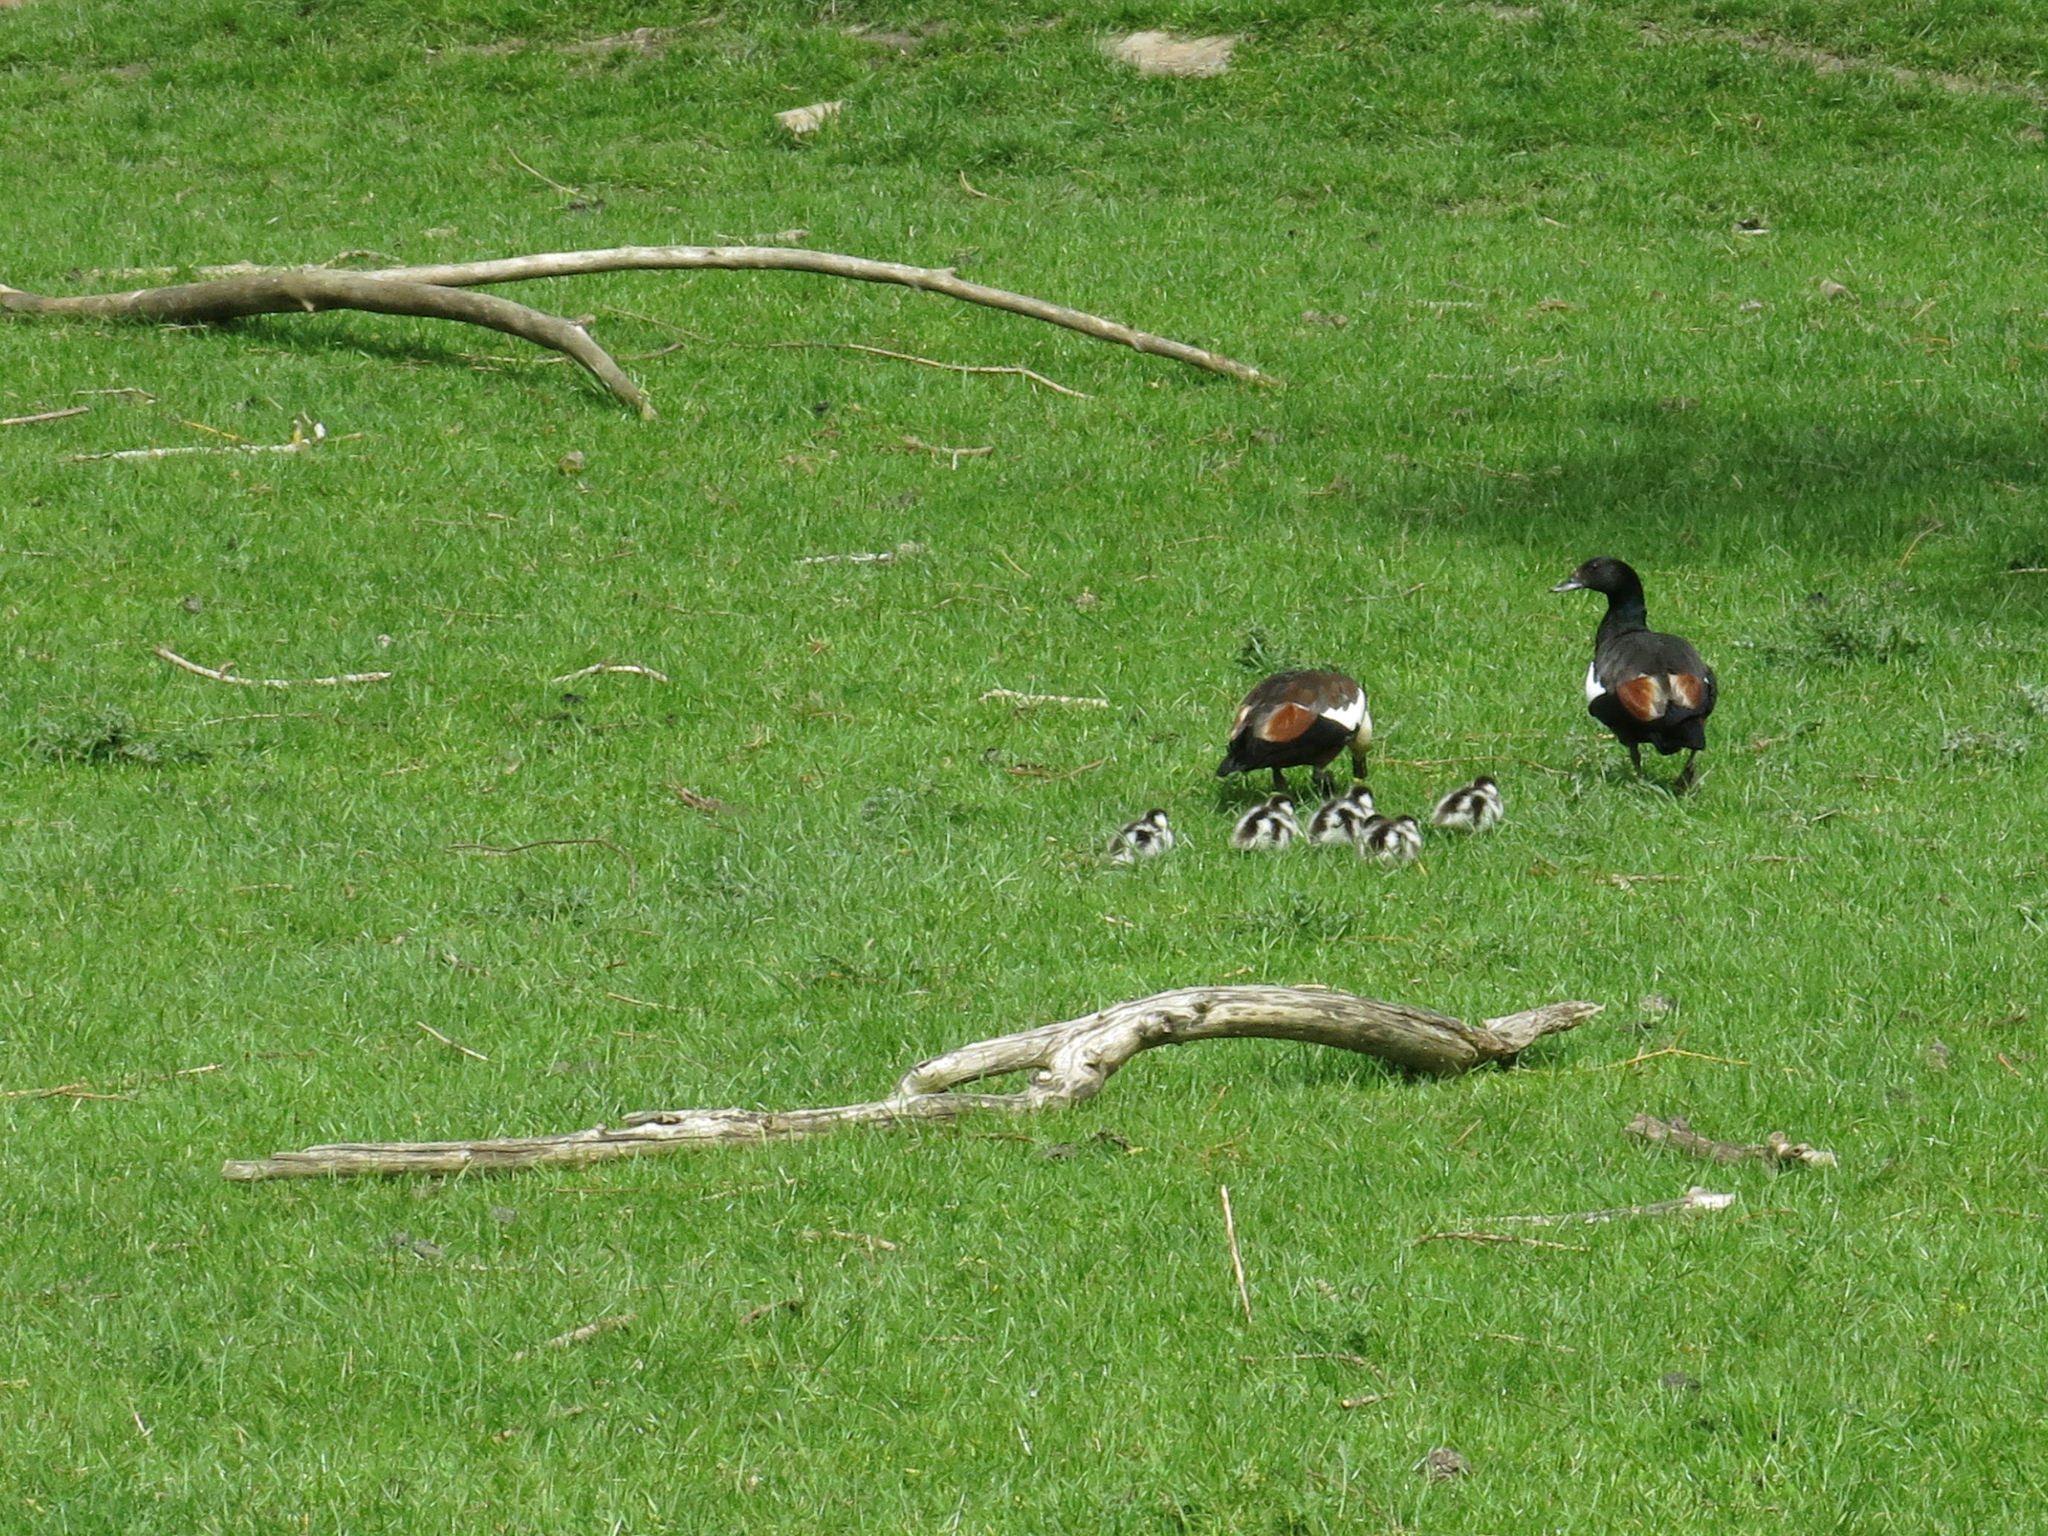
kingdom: Animalia
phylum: Chordata
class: Aves
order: Anseriformes
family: Anatidae
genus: Tadorna
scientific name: Tadorna variegata
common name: Paradise shelduck
